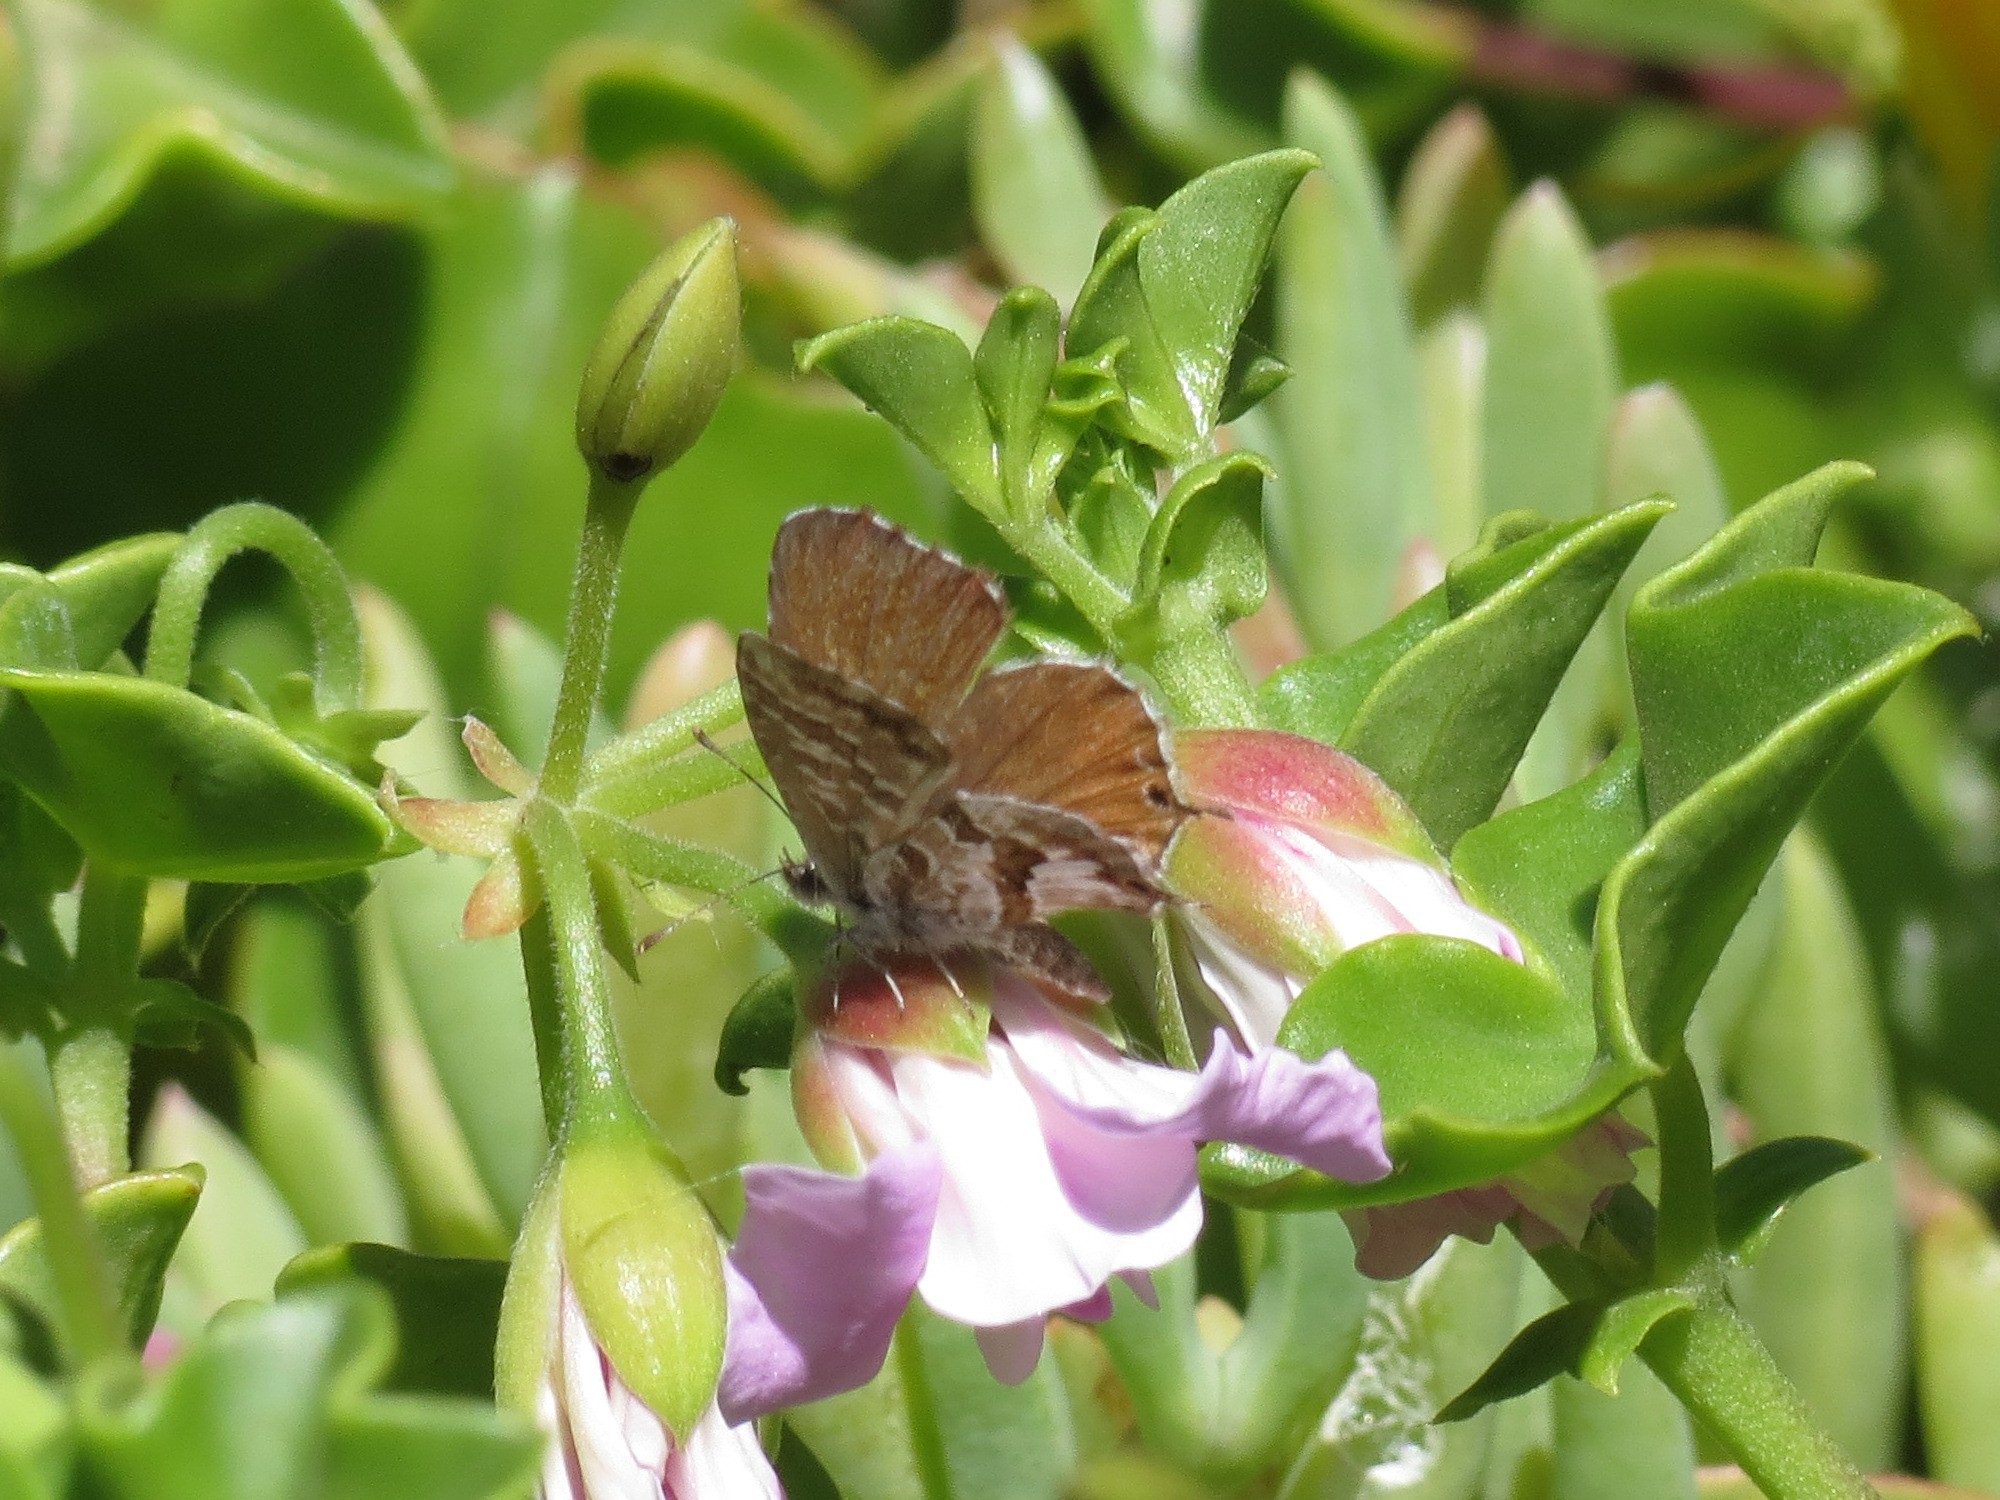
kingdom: Animalia
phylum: Arthropoda
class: Insecta
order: Lepidoptera
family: Lycaenidae
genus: Cacyreus
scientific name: Cacyreus marshalli
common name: Geranium bronze
